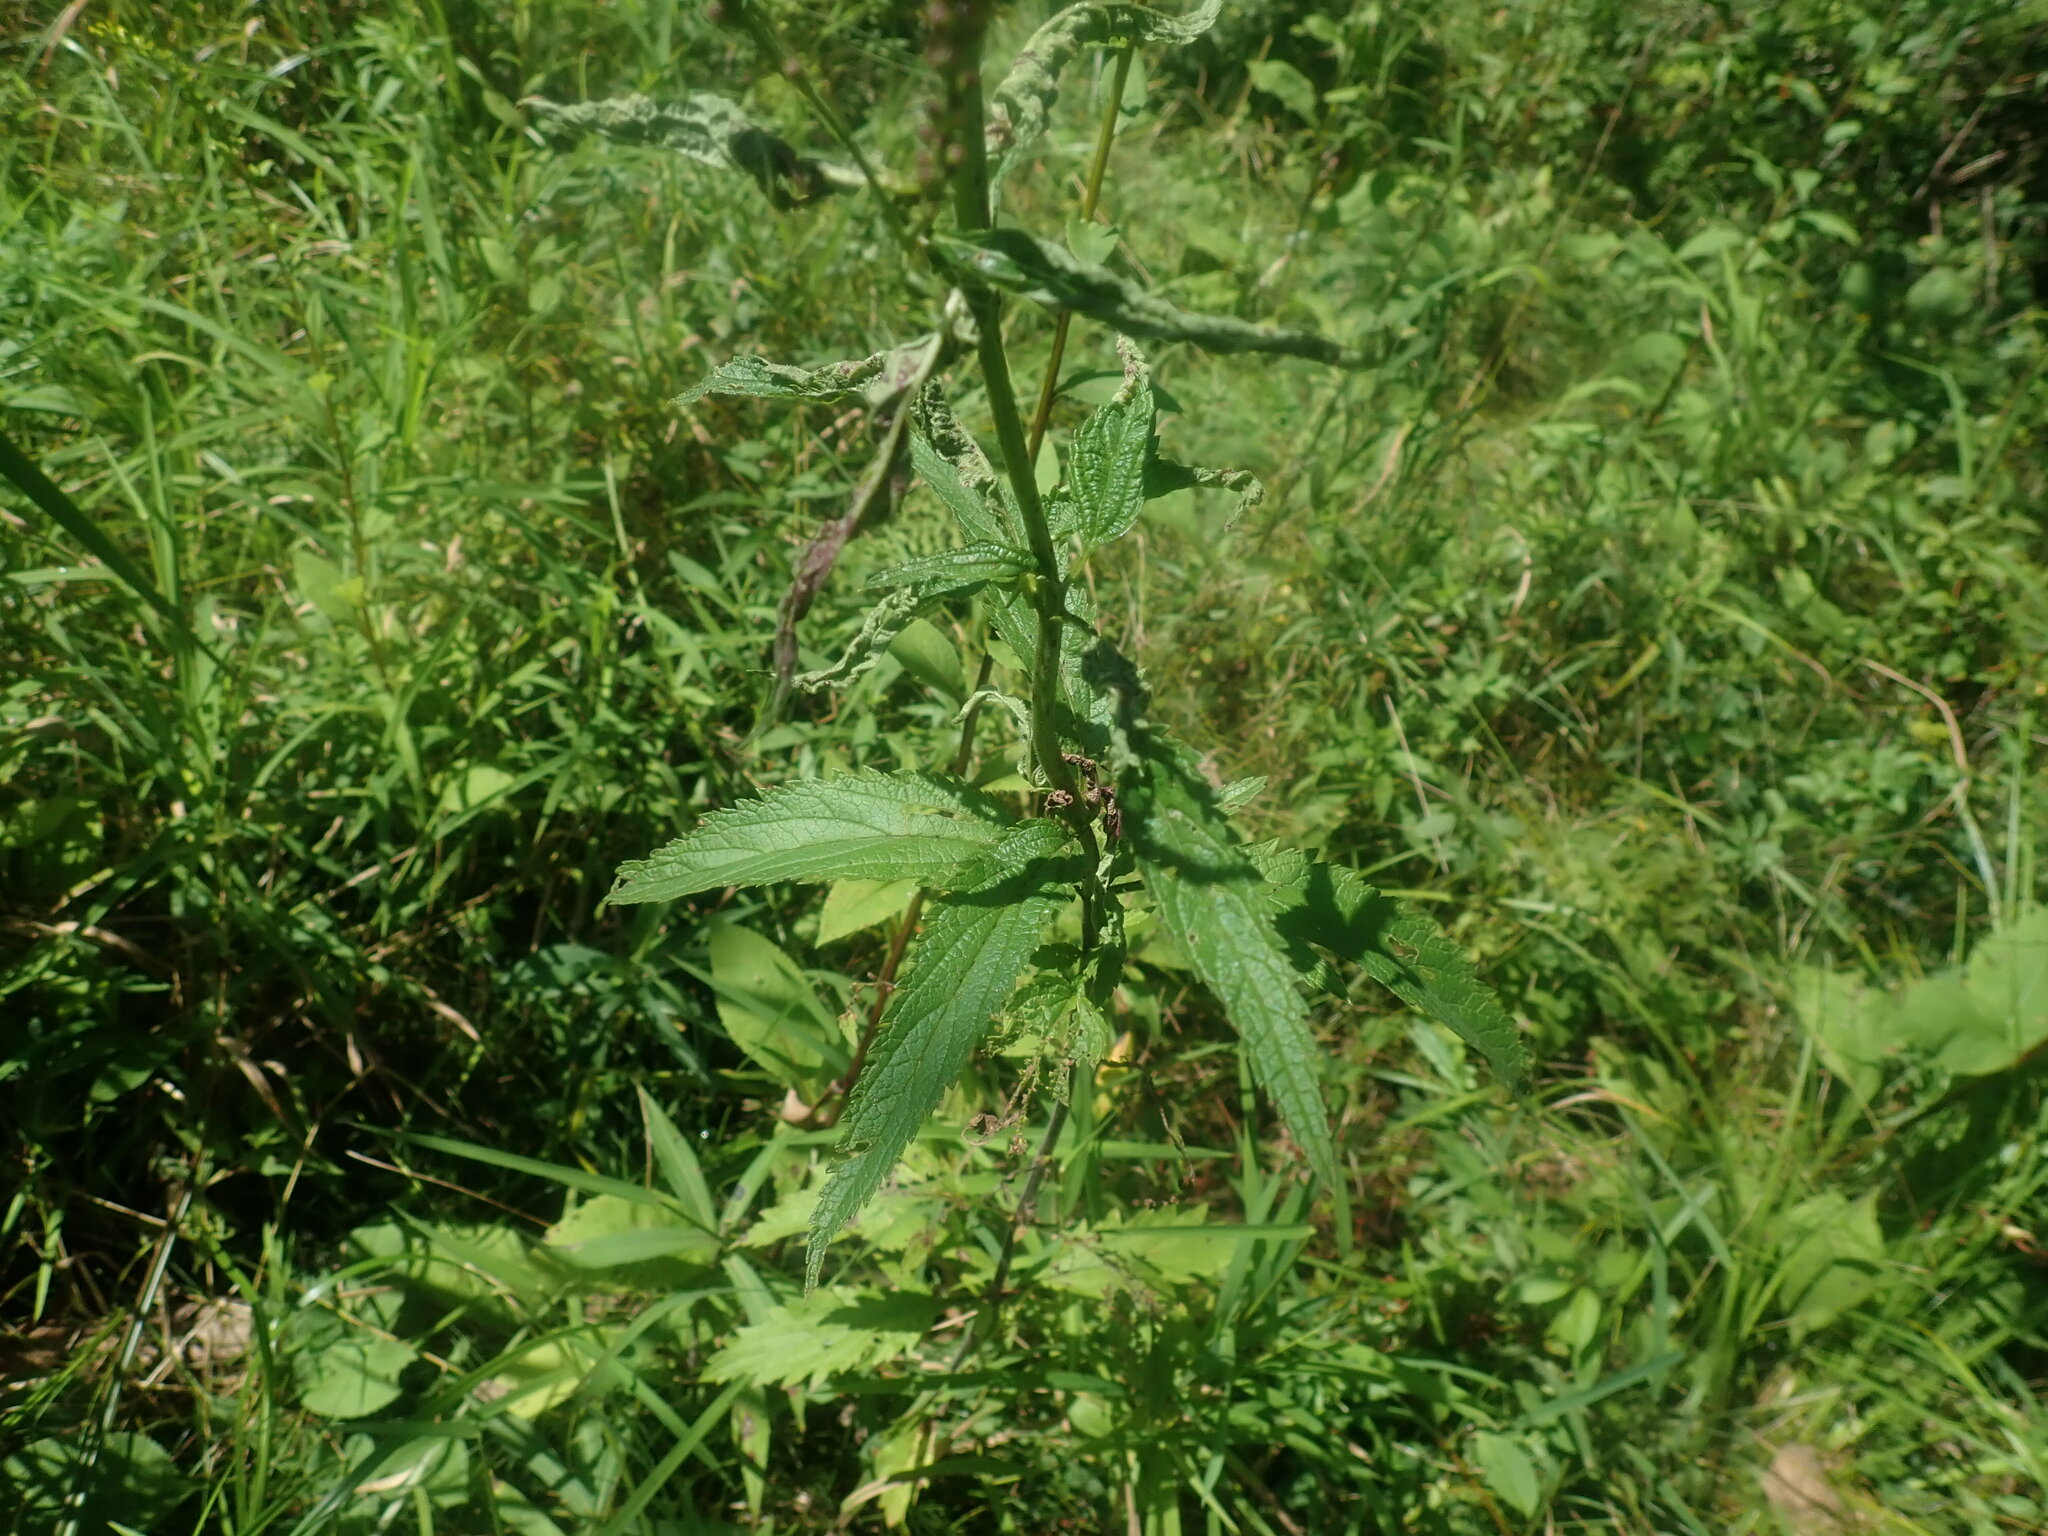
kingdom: Plantae
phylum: Tracheophyta
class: Magnoliopsida
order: Lamiales
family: Verbenaceae
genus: Verbena
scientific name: Verbena hastata
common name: American blue vervain
